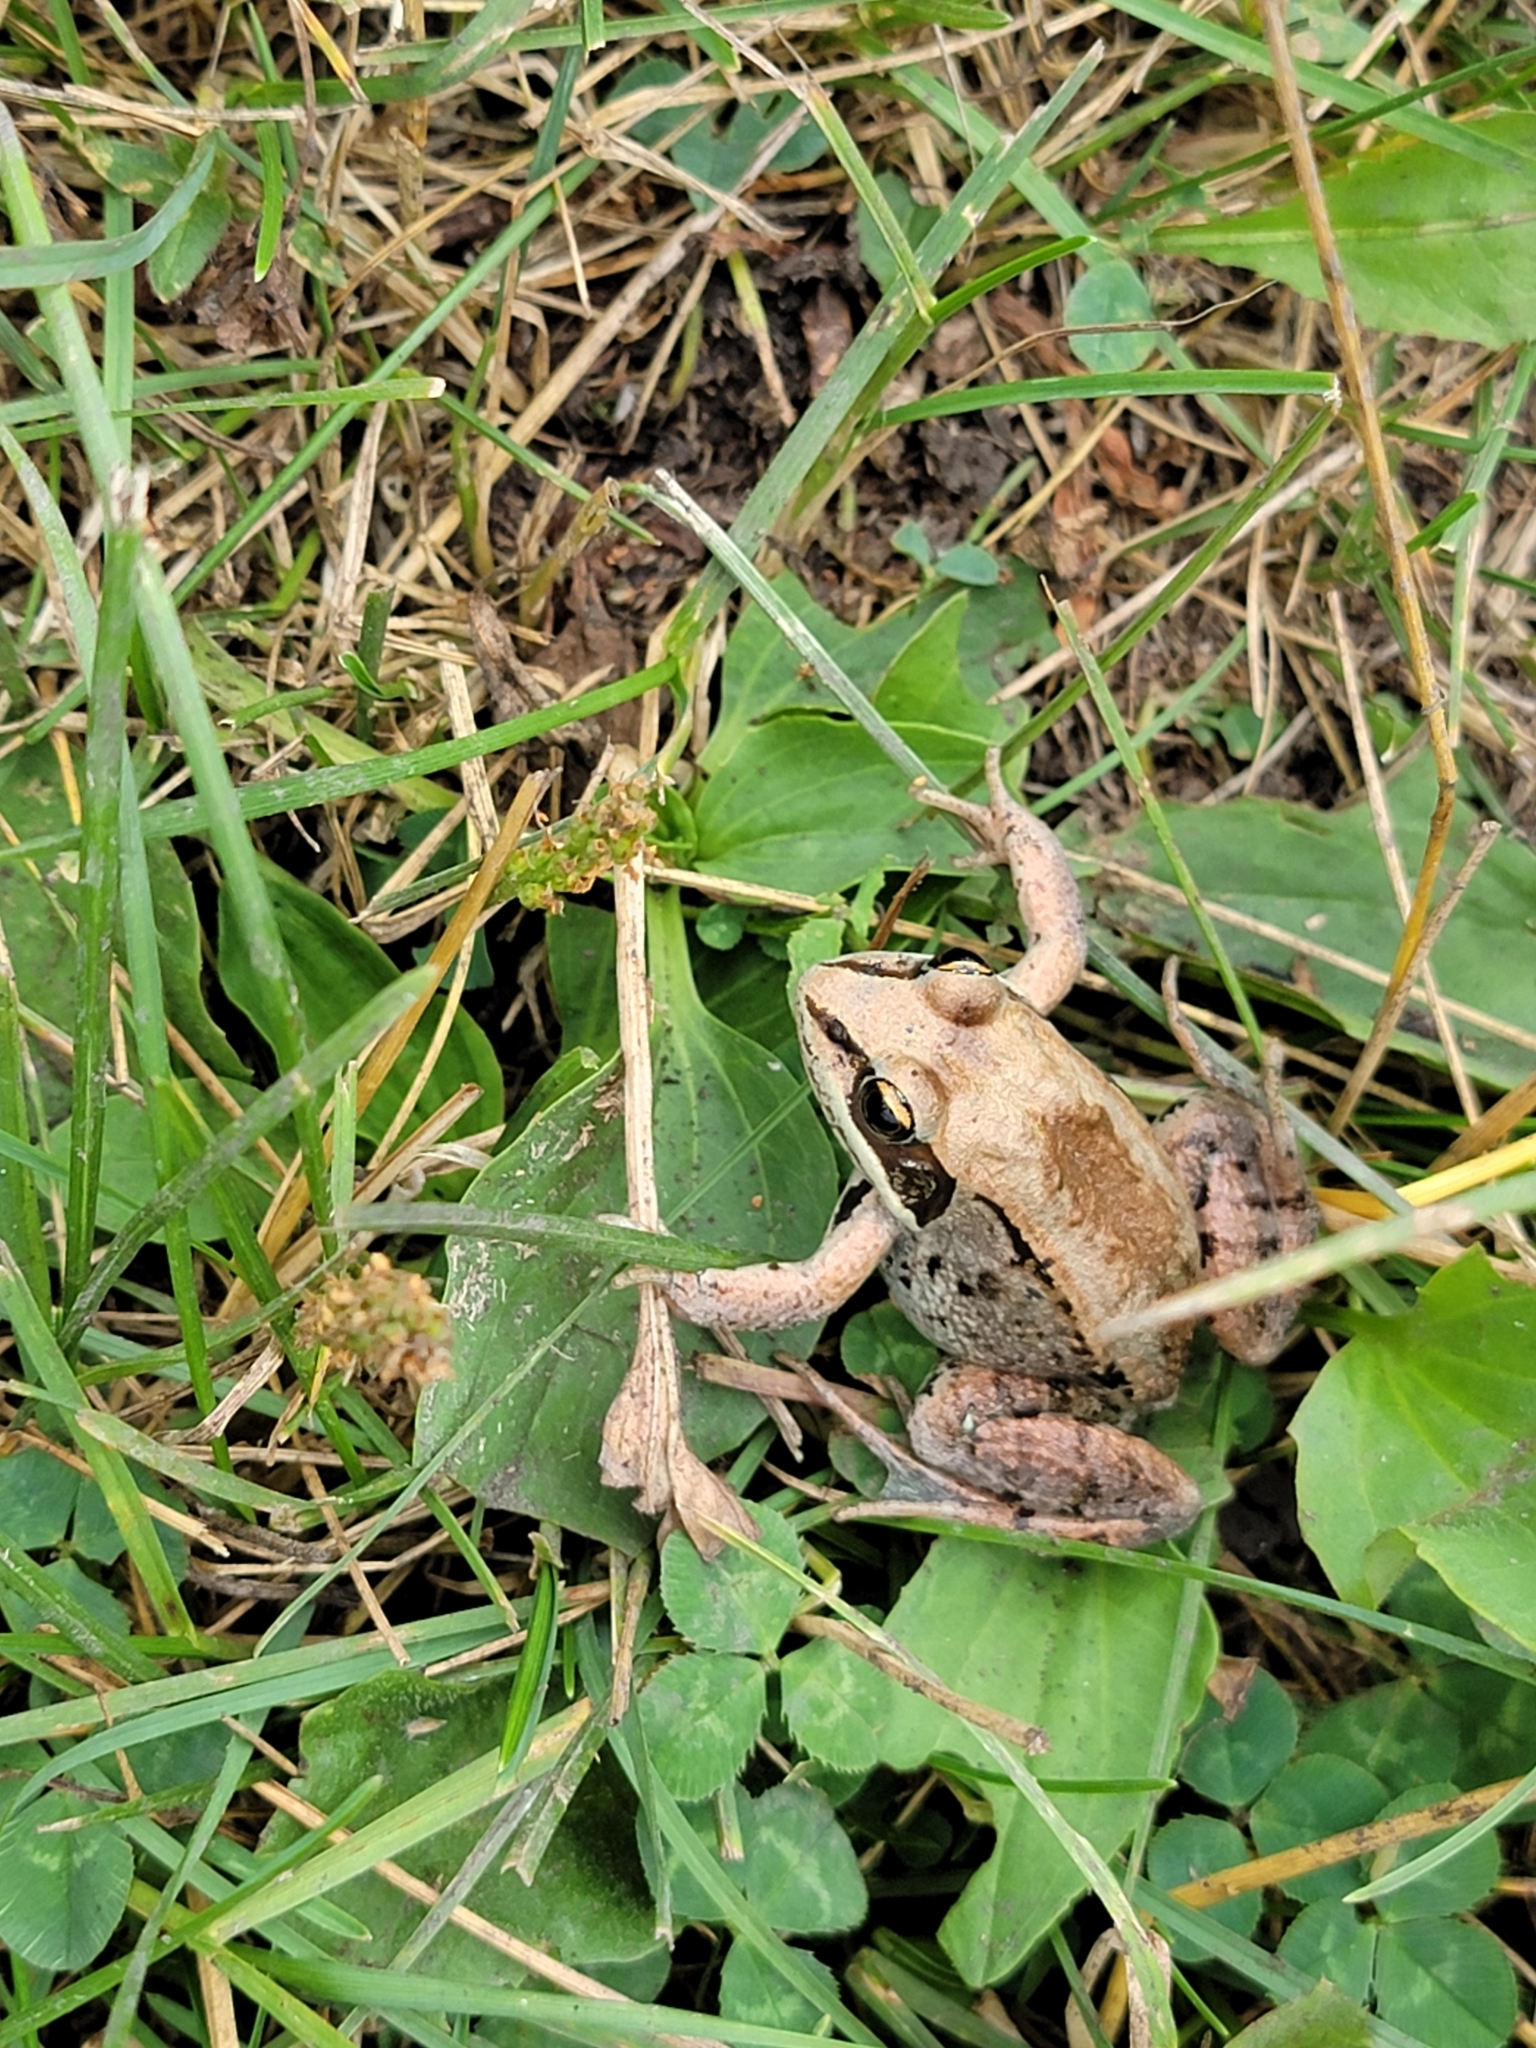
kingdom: Animalia
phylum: Chordata
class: Amphibia
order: Anura
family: Ranidae
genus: Lithobates
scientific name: Lithobates sylvaticus
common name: Wood frog
